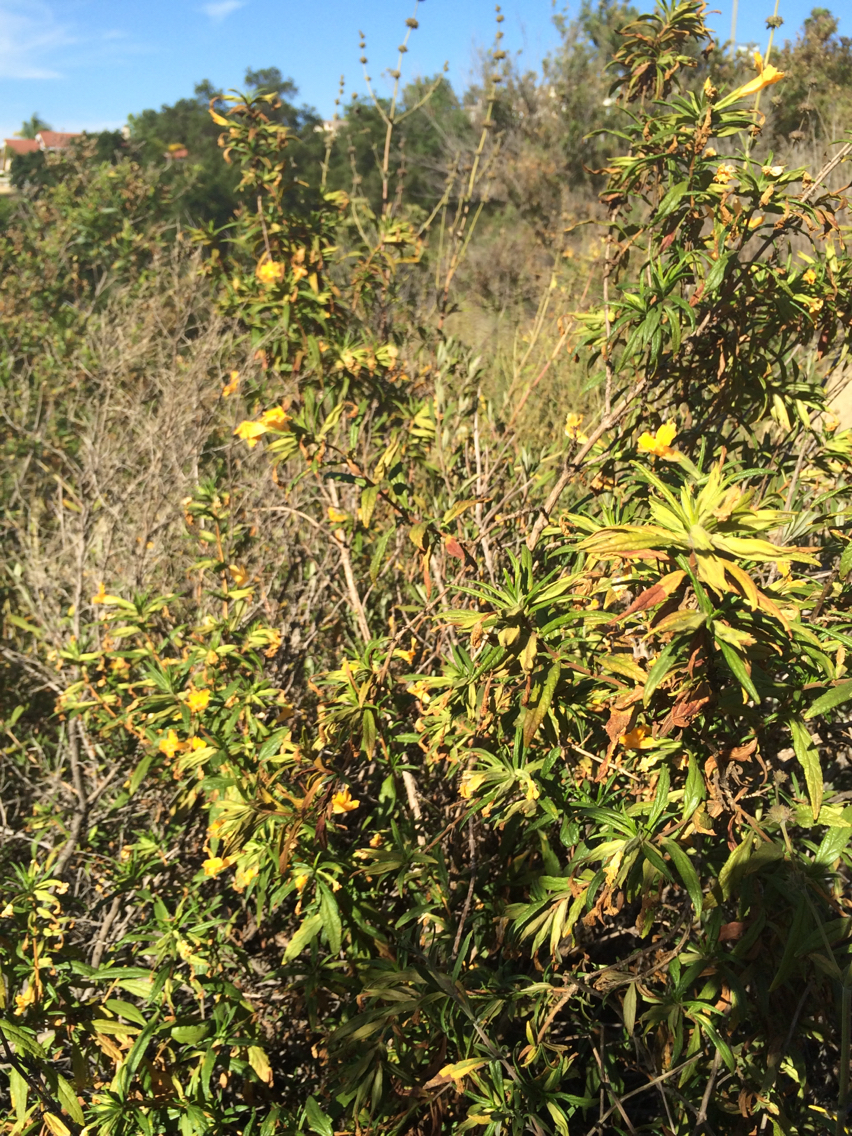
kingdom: Plantae
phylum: Tracheophyta
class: Magnoliopsida
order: Lamiales
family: Phrymaceae
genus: Diplacus
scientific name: Diplacus longiflorus
